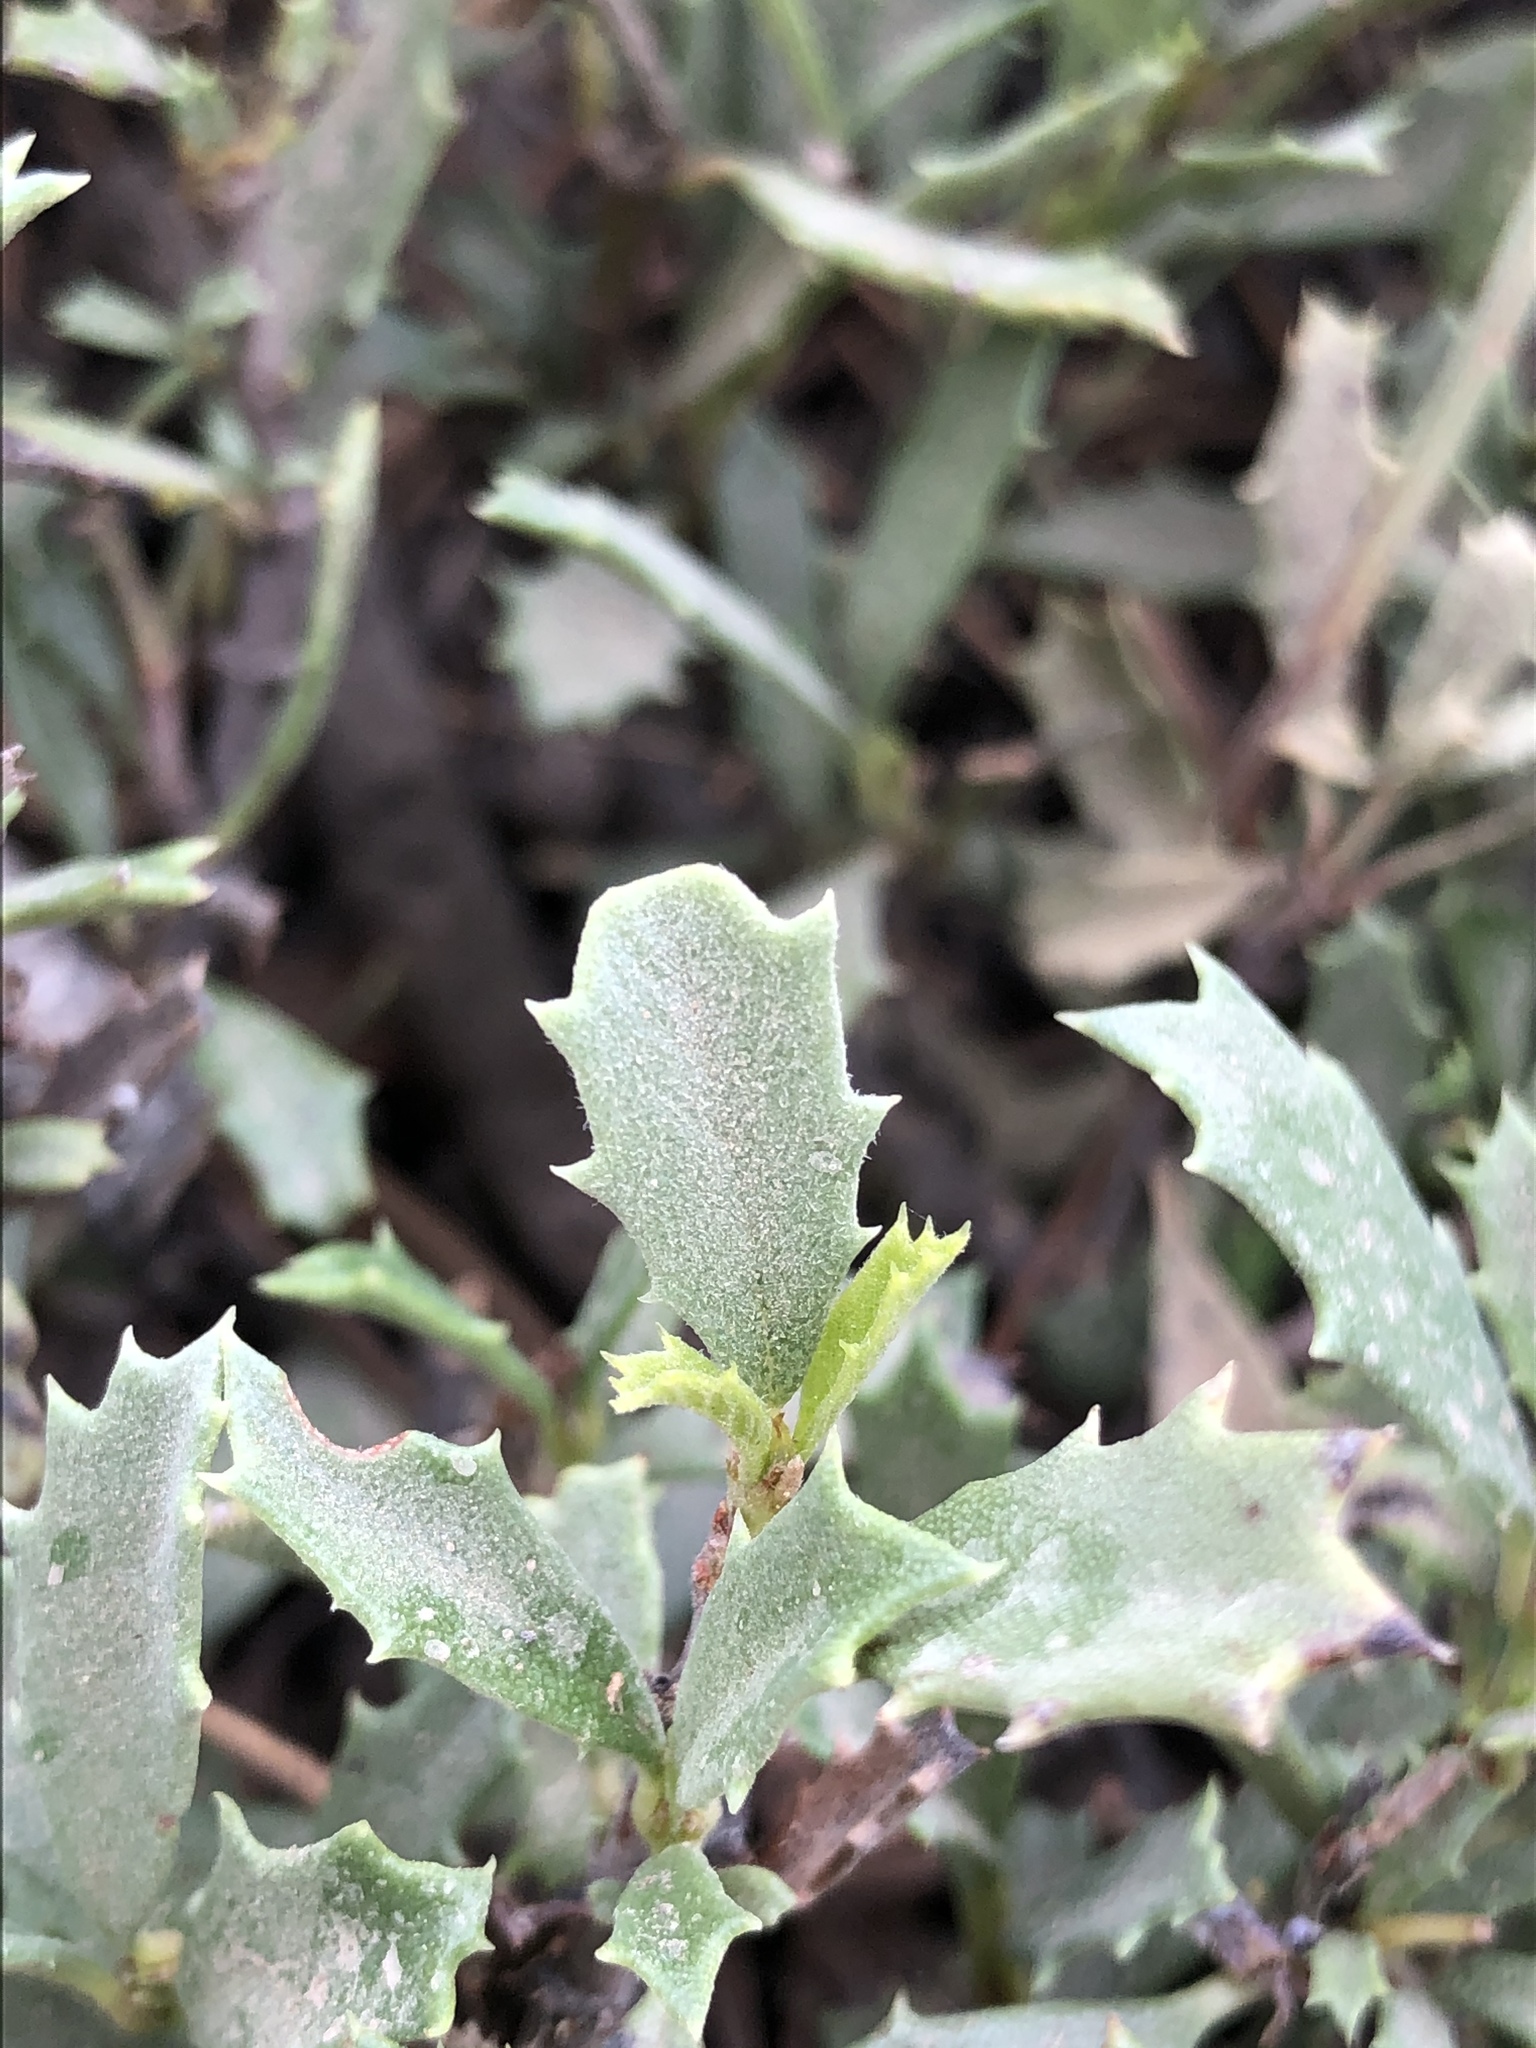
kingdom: Plantae
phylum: Tracheophyta
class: Magnoliopsida
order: Rosales
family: Rhamnaceae
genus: Ceanothus
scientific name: Ceanothus prostratus
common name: Mahala-mat
